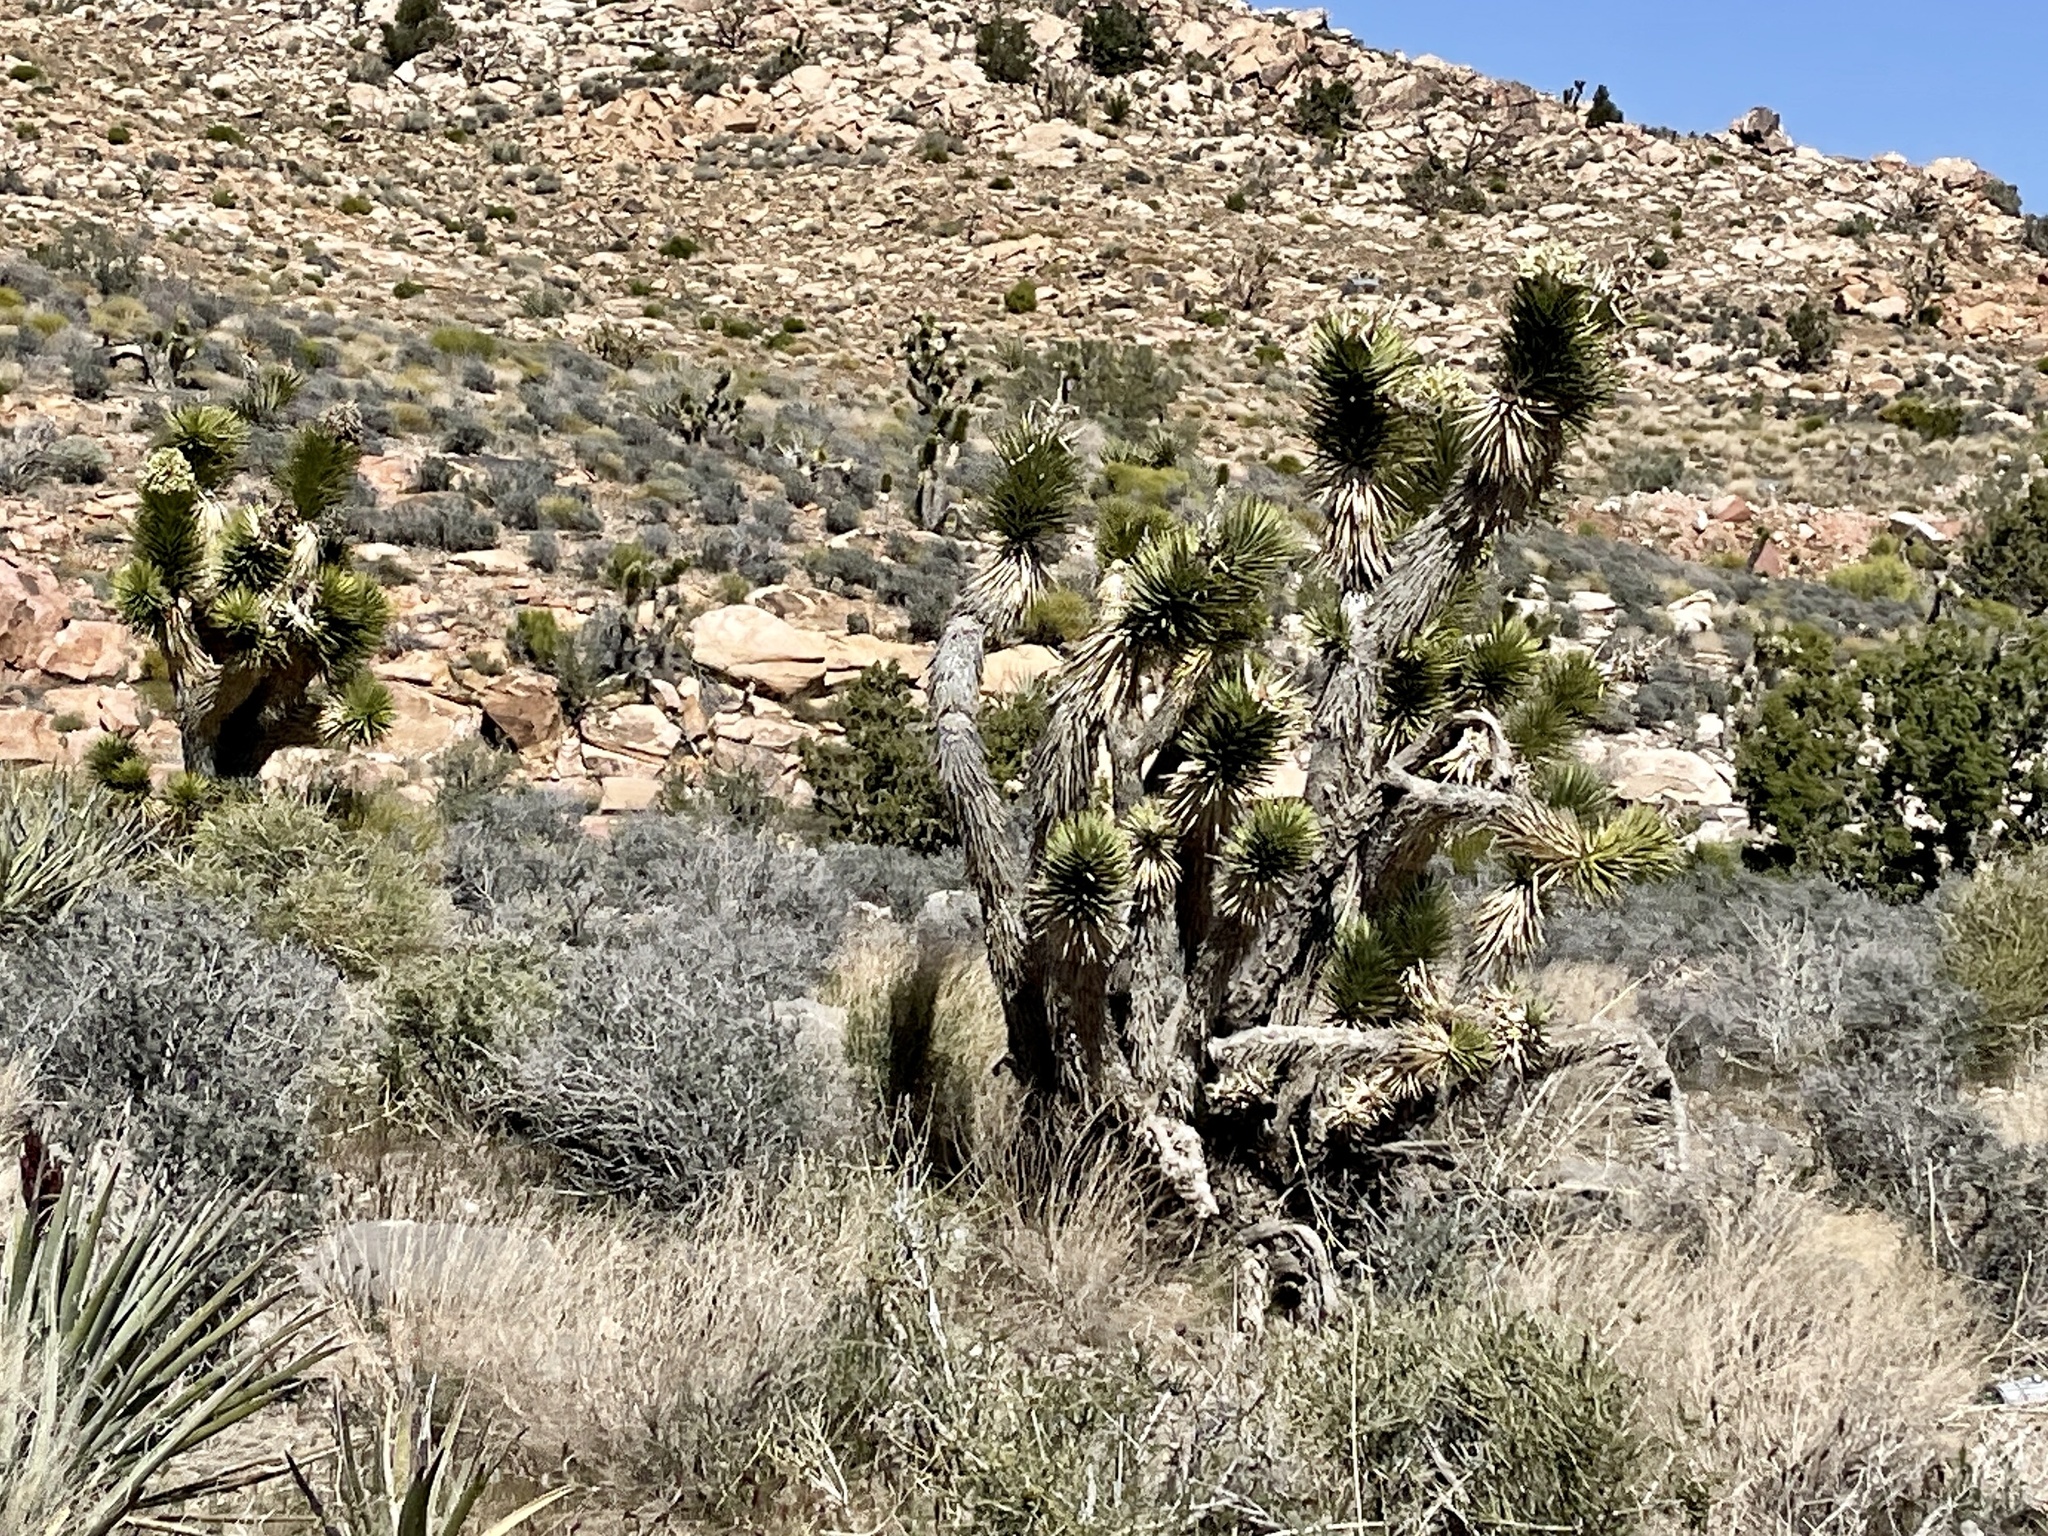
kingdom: Plantae
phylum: Tracheophyta
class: Liliopsida
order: Asparagales
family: Asparagaceae
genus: Yucca
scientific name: Yucca brevifolia
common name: Joshua tree
